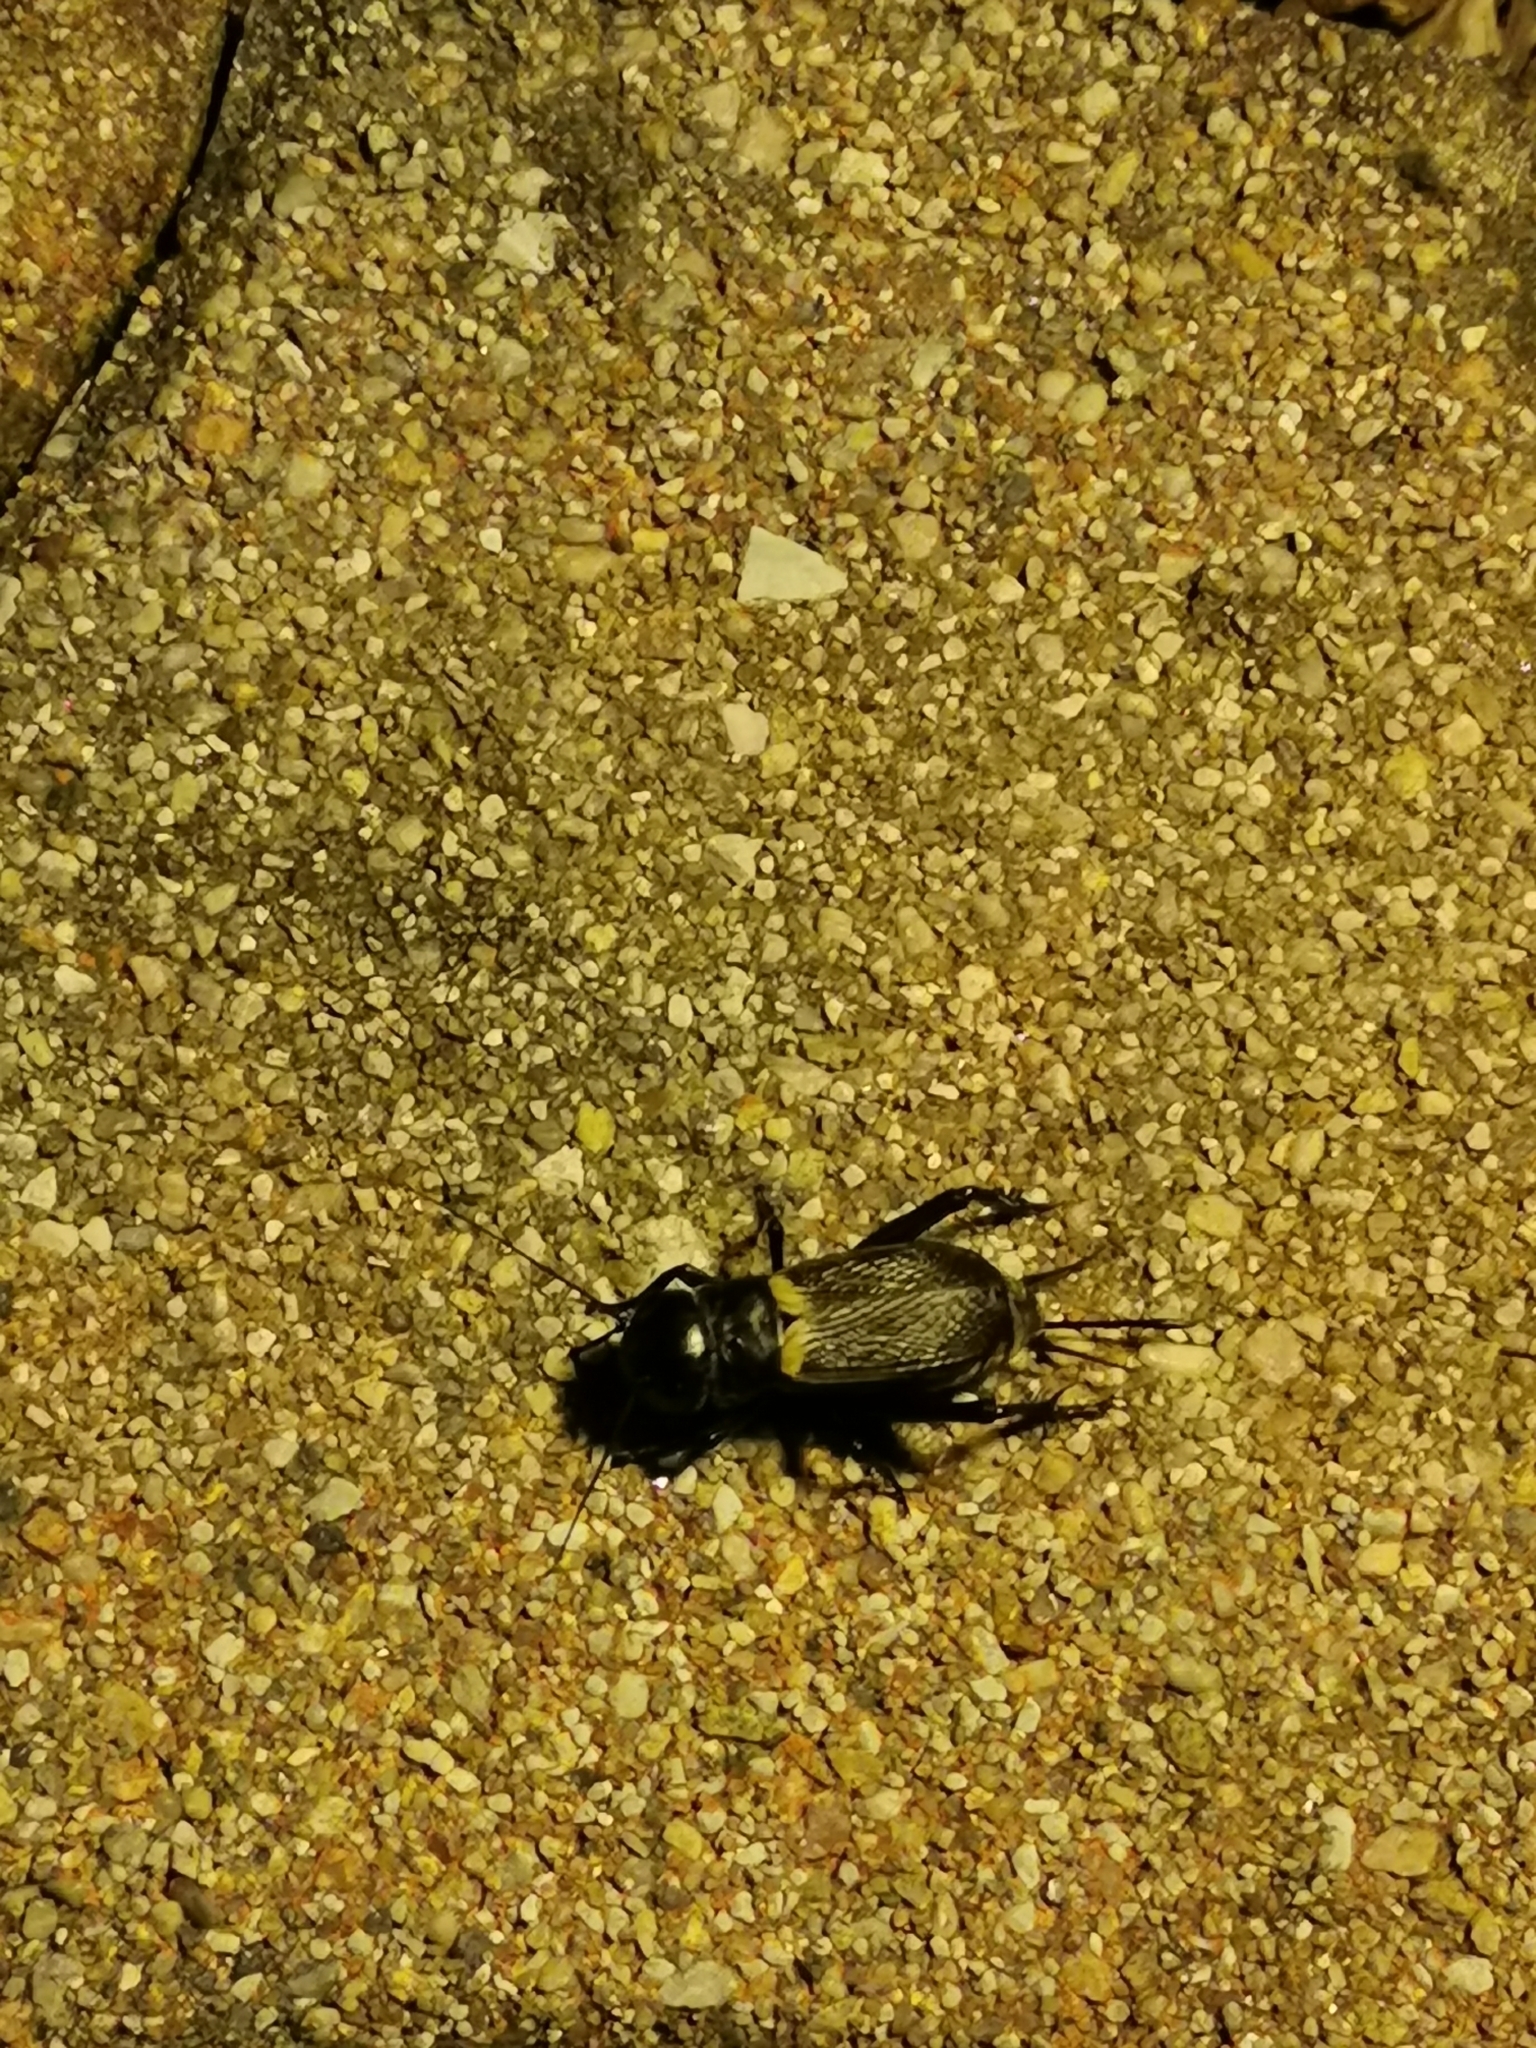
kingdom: Animalia
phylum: Arthropoda
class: Insecta
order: Orthoptera
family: Gryllidae
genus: Gryllus
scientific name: Gryllus campestris
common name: Field cricket
